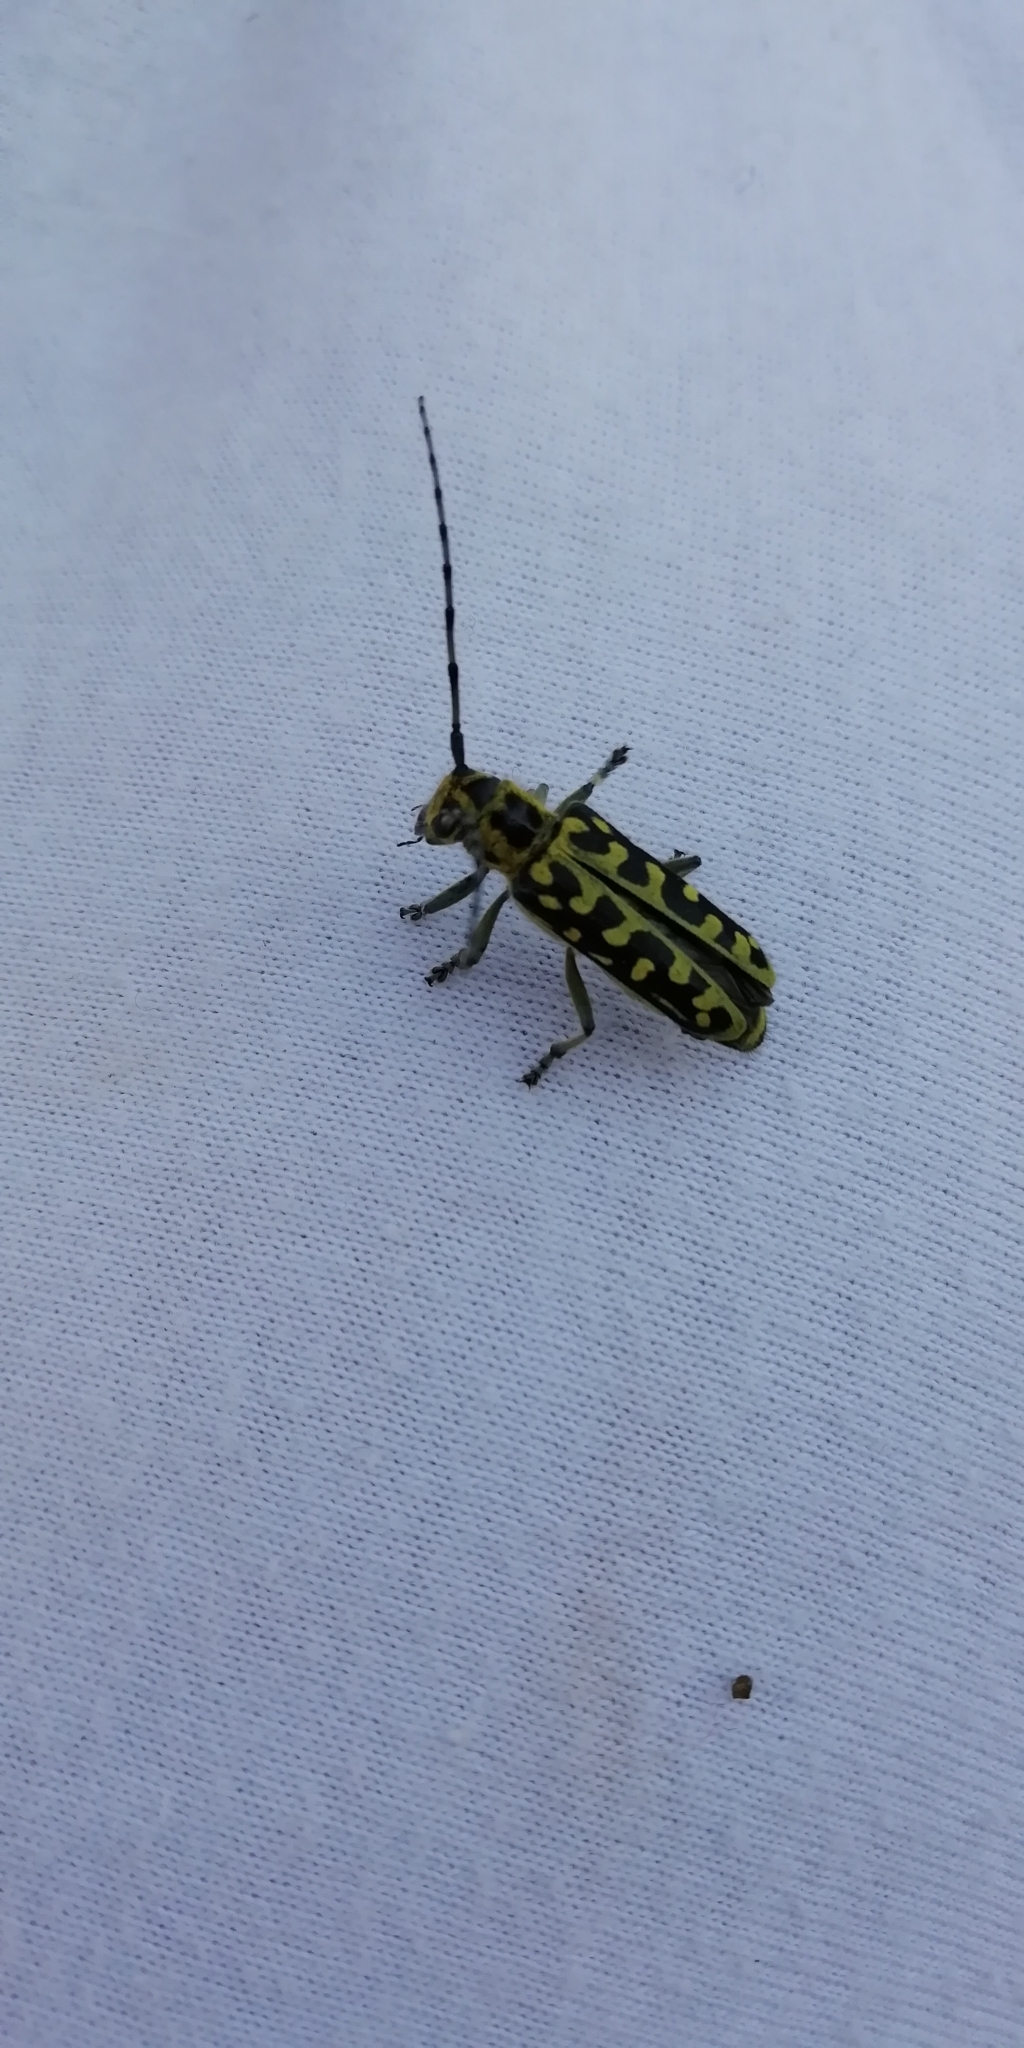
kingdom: Animalia
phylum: Arthropoda
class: Insecta
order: Coleoptera
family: Cerambycidae
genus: Saperda
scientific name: Saperda scalaris
